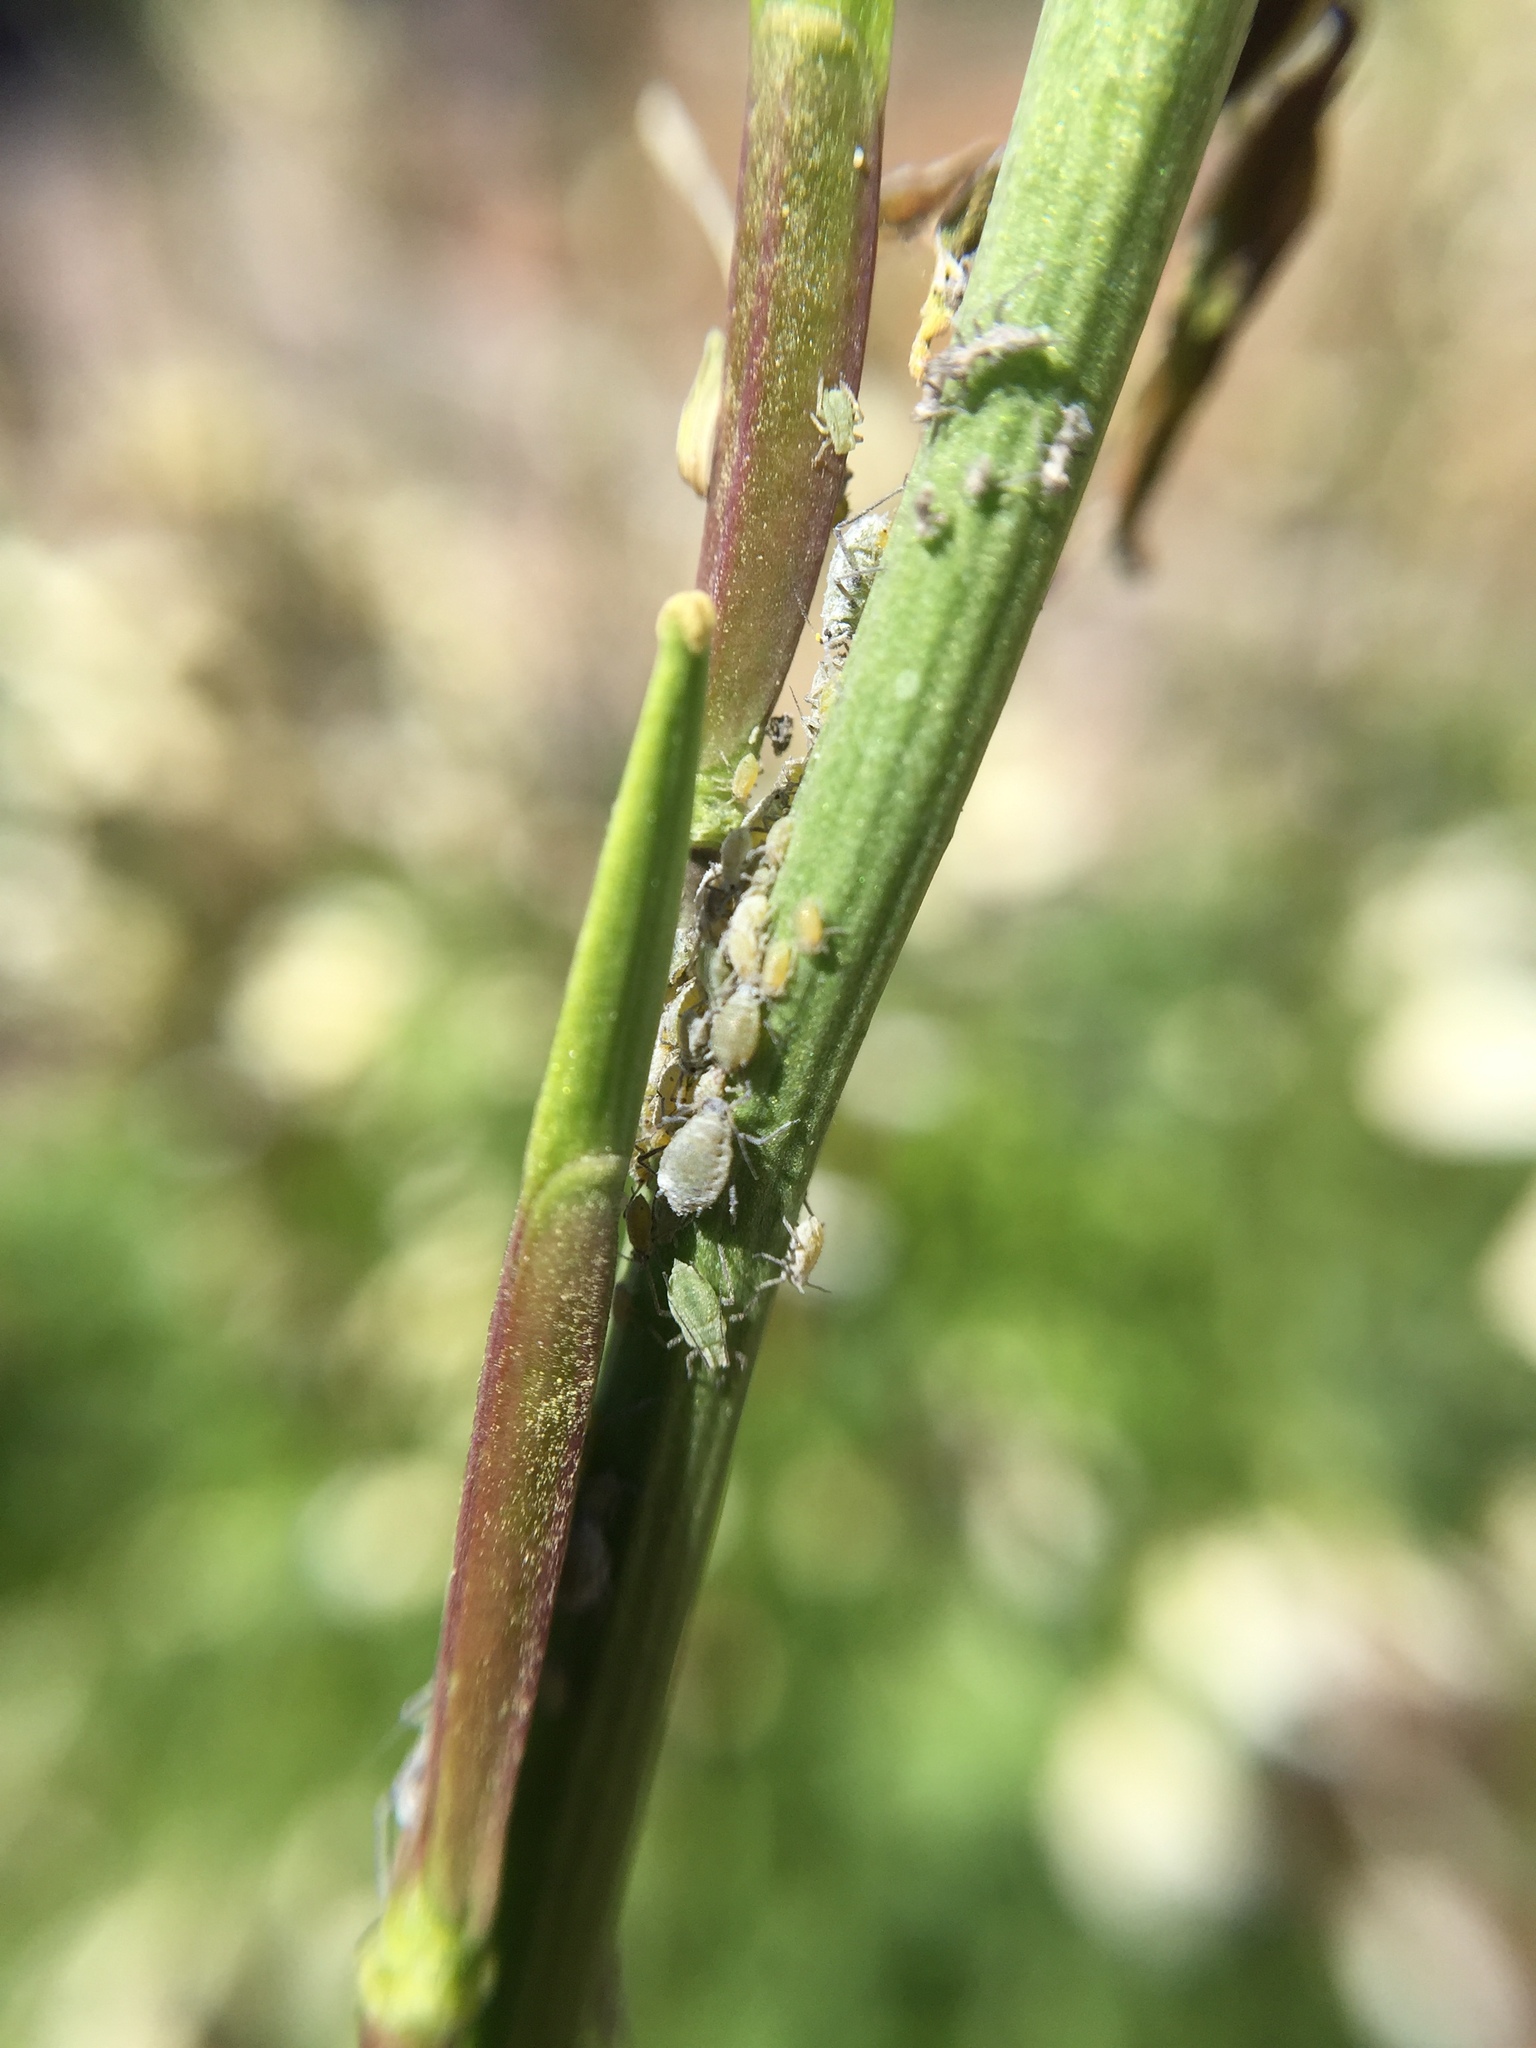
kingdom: Animalia
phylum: Arthropoda
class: Insecta
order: Hemiptera
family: Aphididae
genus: Brevicoryne
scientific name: Brevicoryne brassicae
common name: Cabbage aphid
